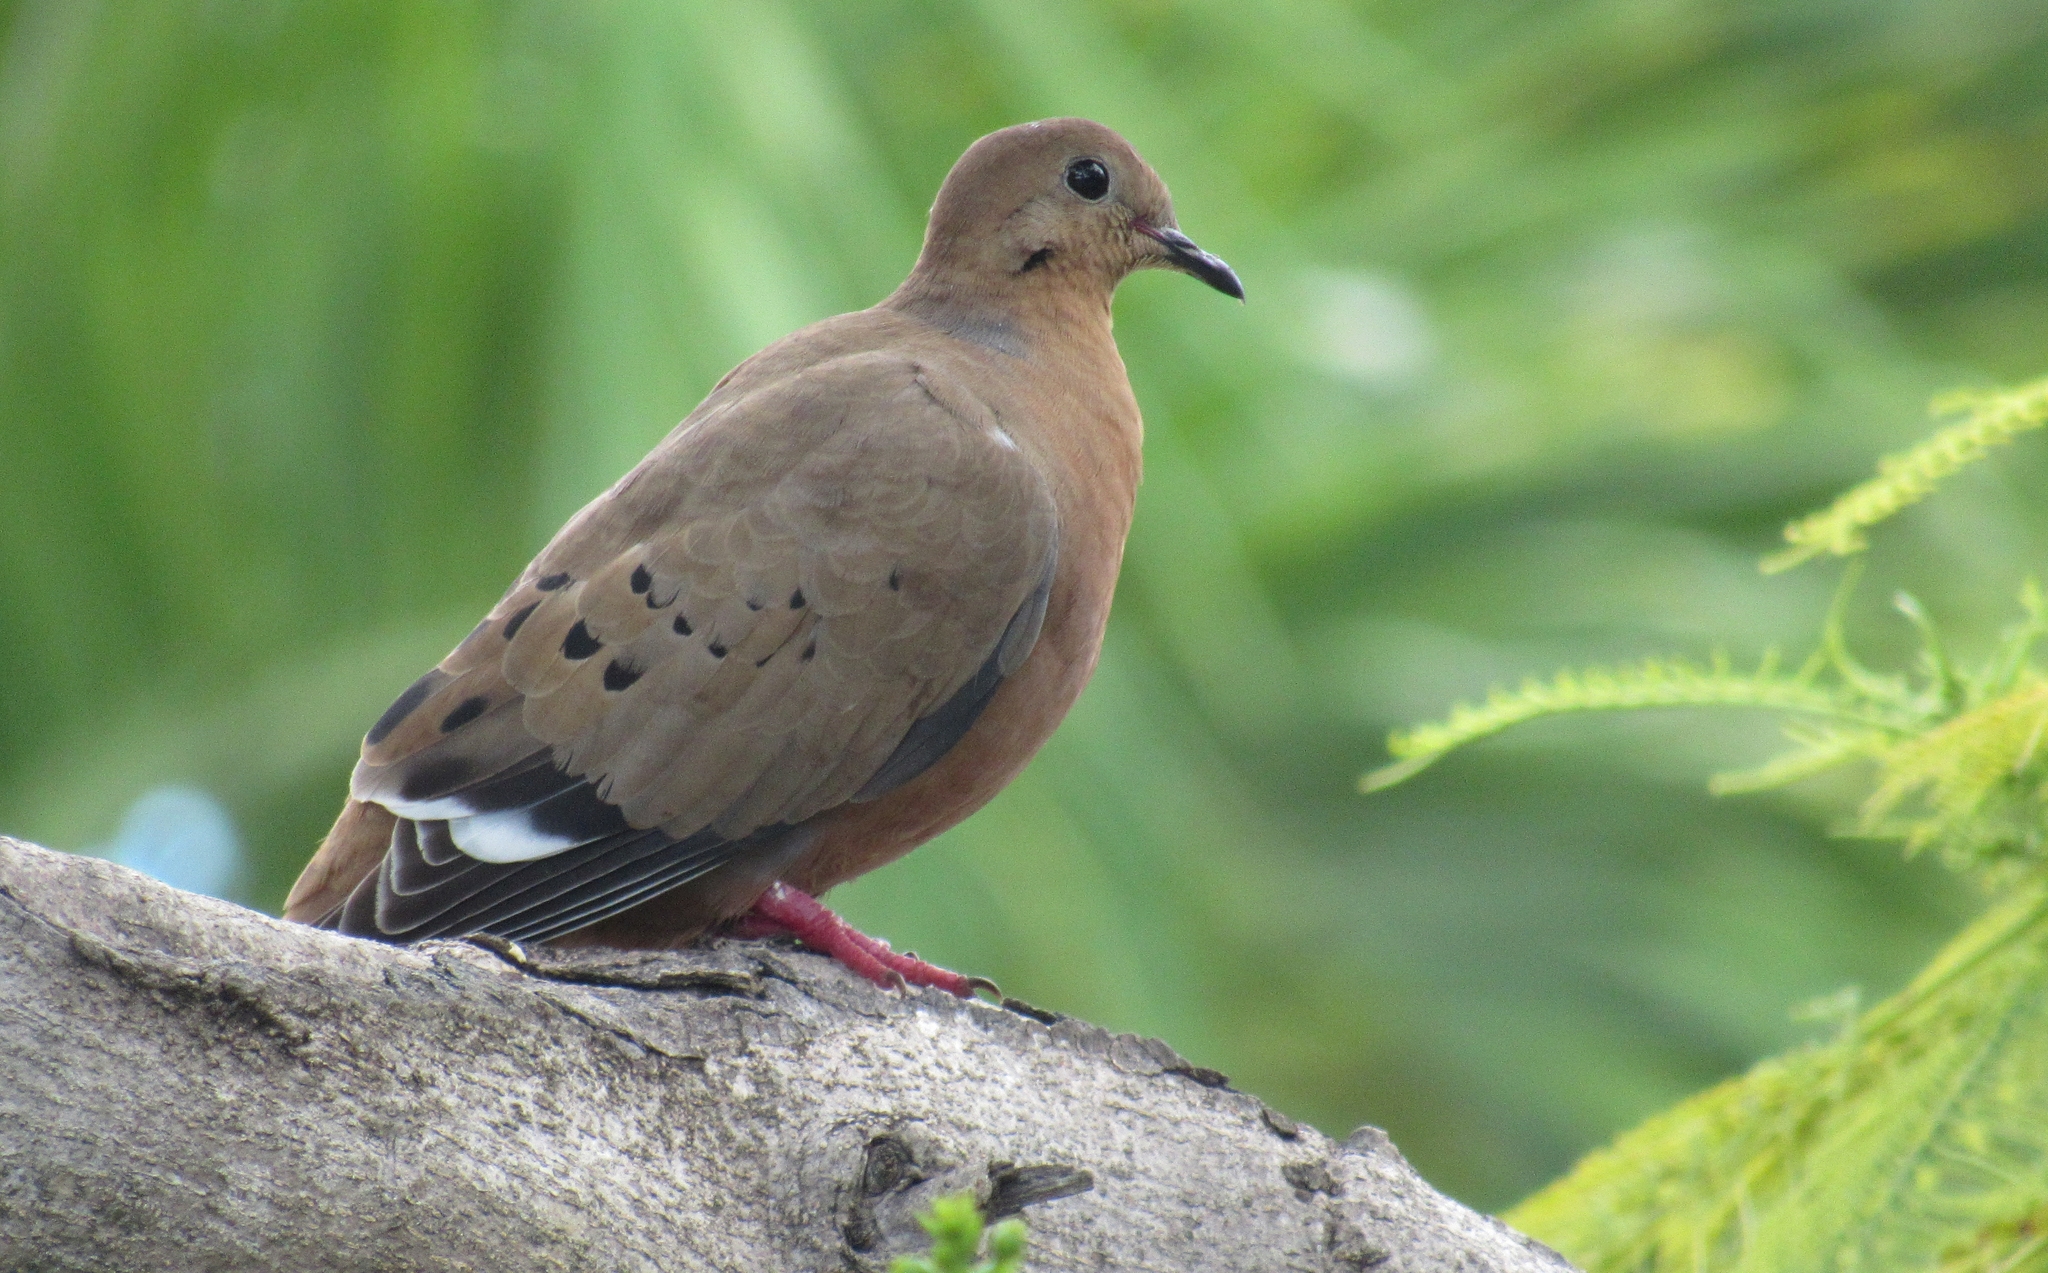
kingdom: Animalia
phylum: Chordata
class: Aves
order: Columbiformes
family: Columbidae
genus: Zenaida
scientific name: Zenaida aurita
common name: Zenaida dove
